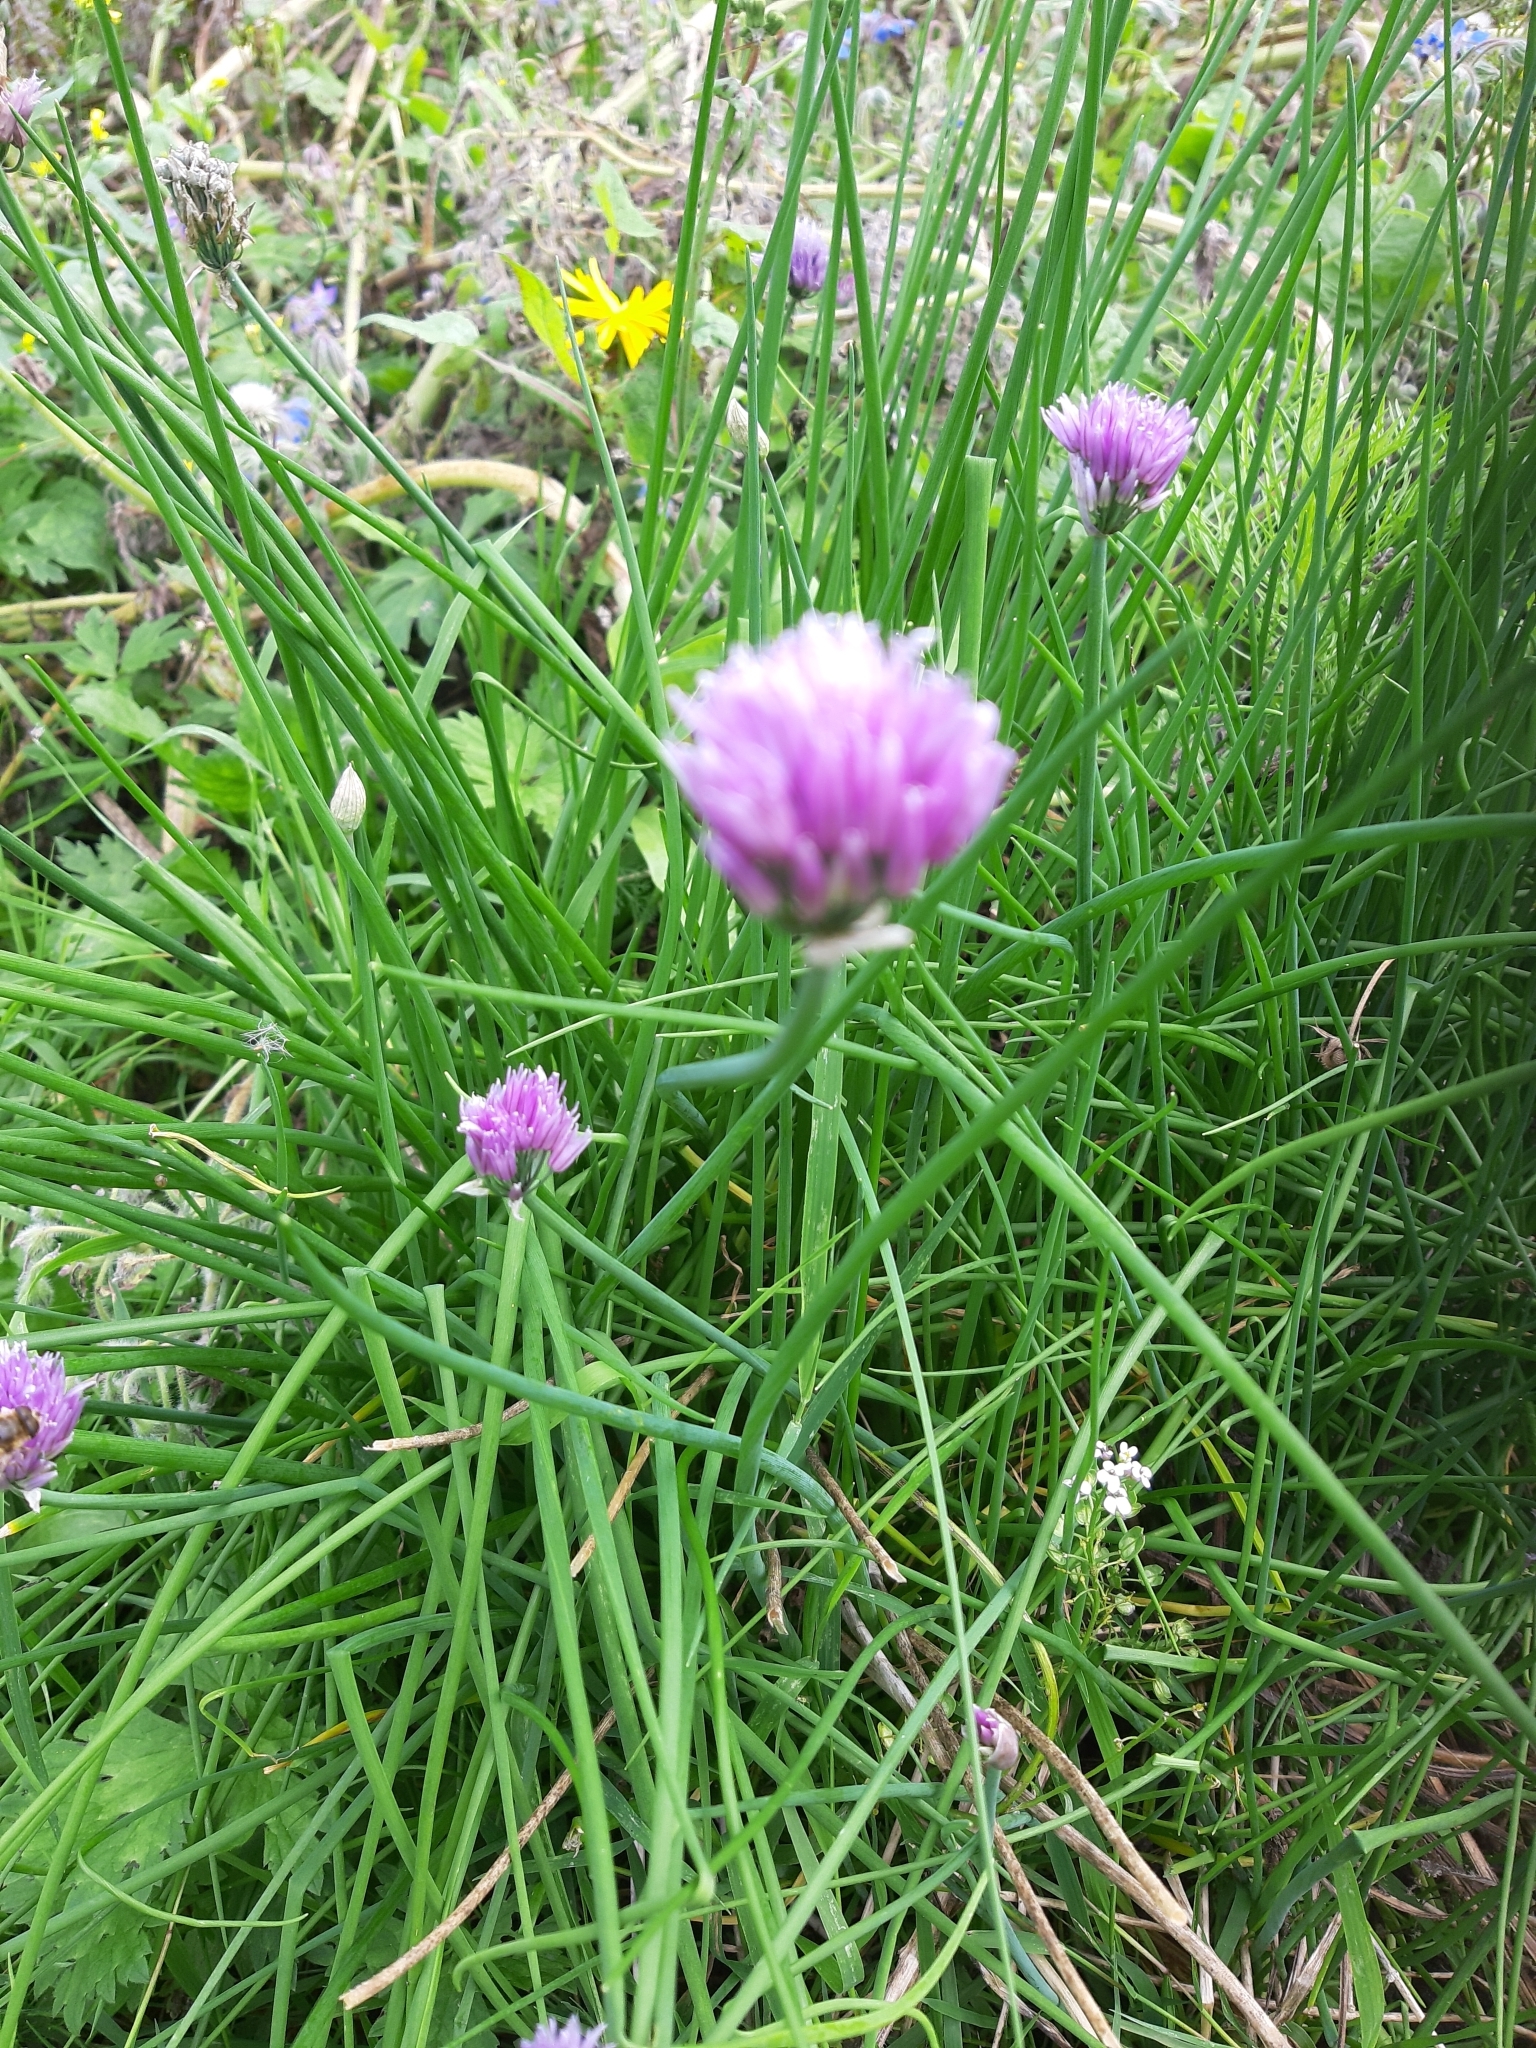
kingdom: Plantae
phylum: Tracheophyta
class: Liliopsida
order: Asparagales
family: Amaryllidaceae
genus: Allium
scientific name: Allium schoenoprasum
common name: Chives
